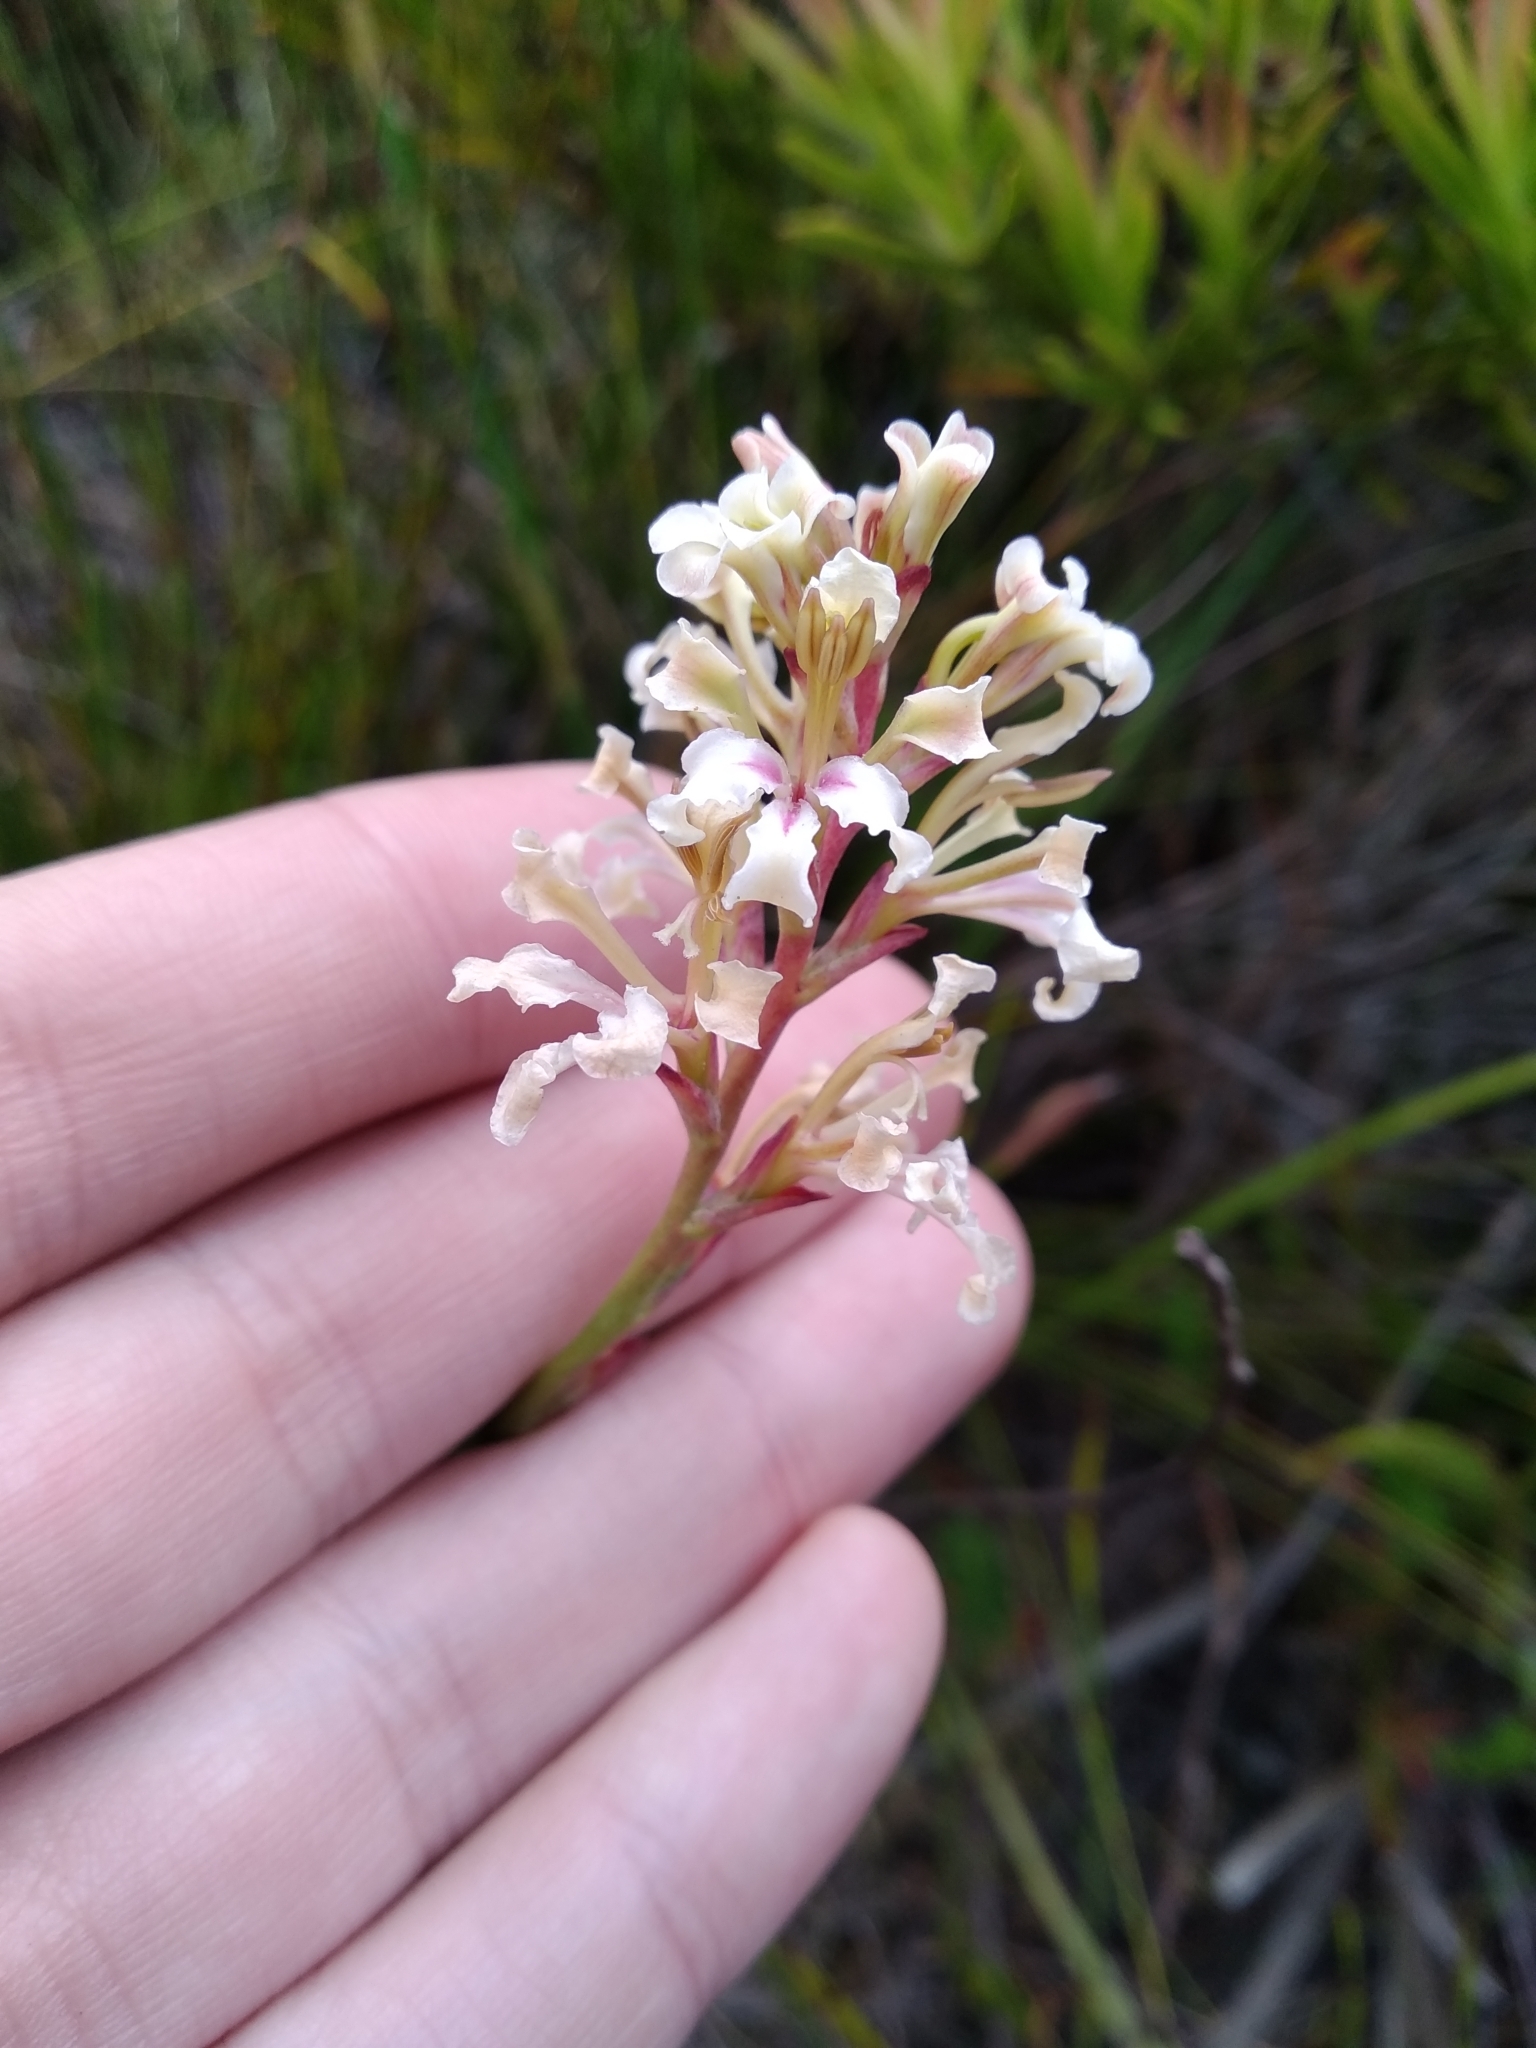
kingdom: Plantae
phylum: Tracheophyta
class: Liliopsida
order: Asparagales
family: Iridaceae
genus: Tritoniopsis
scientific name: Tritoniopsis unguicularis
